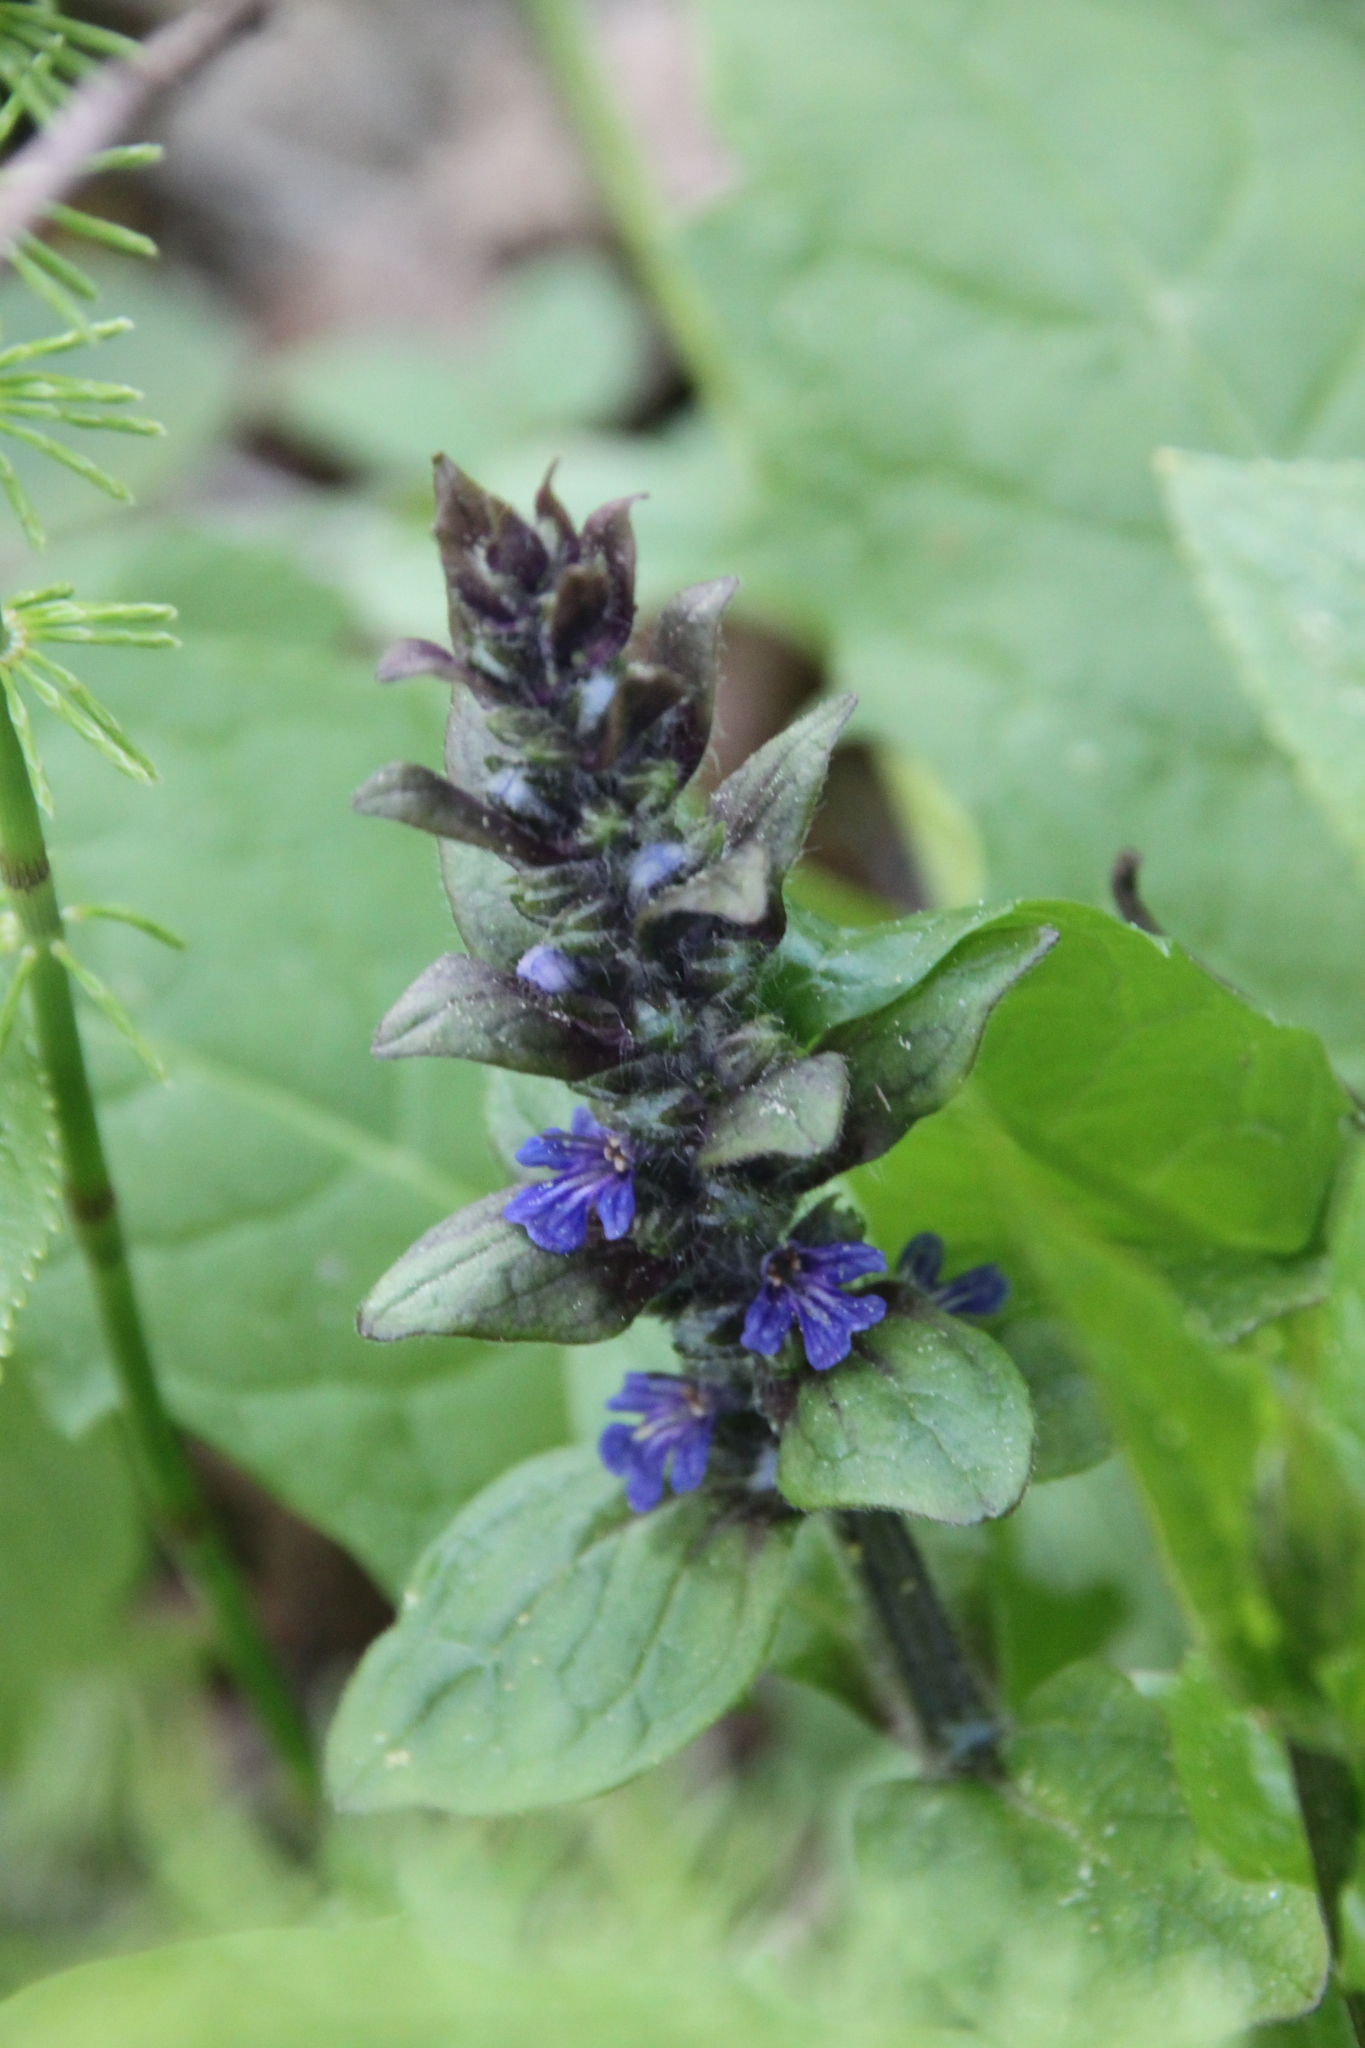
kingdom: Plantae
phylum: Tracheophyta
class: Magnoliopsida
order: Lamiales
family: Lamiaceae
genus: Ajuga
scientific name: Ajuga reptans
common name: Bugle
